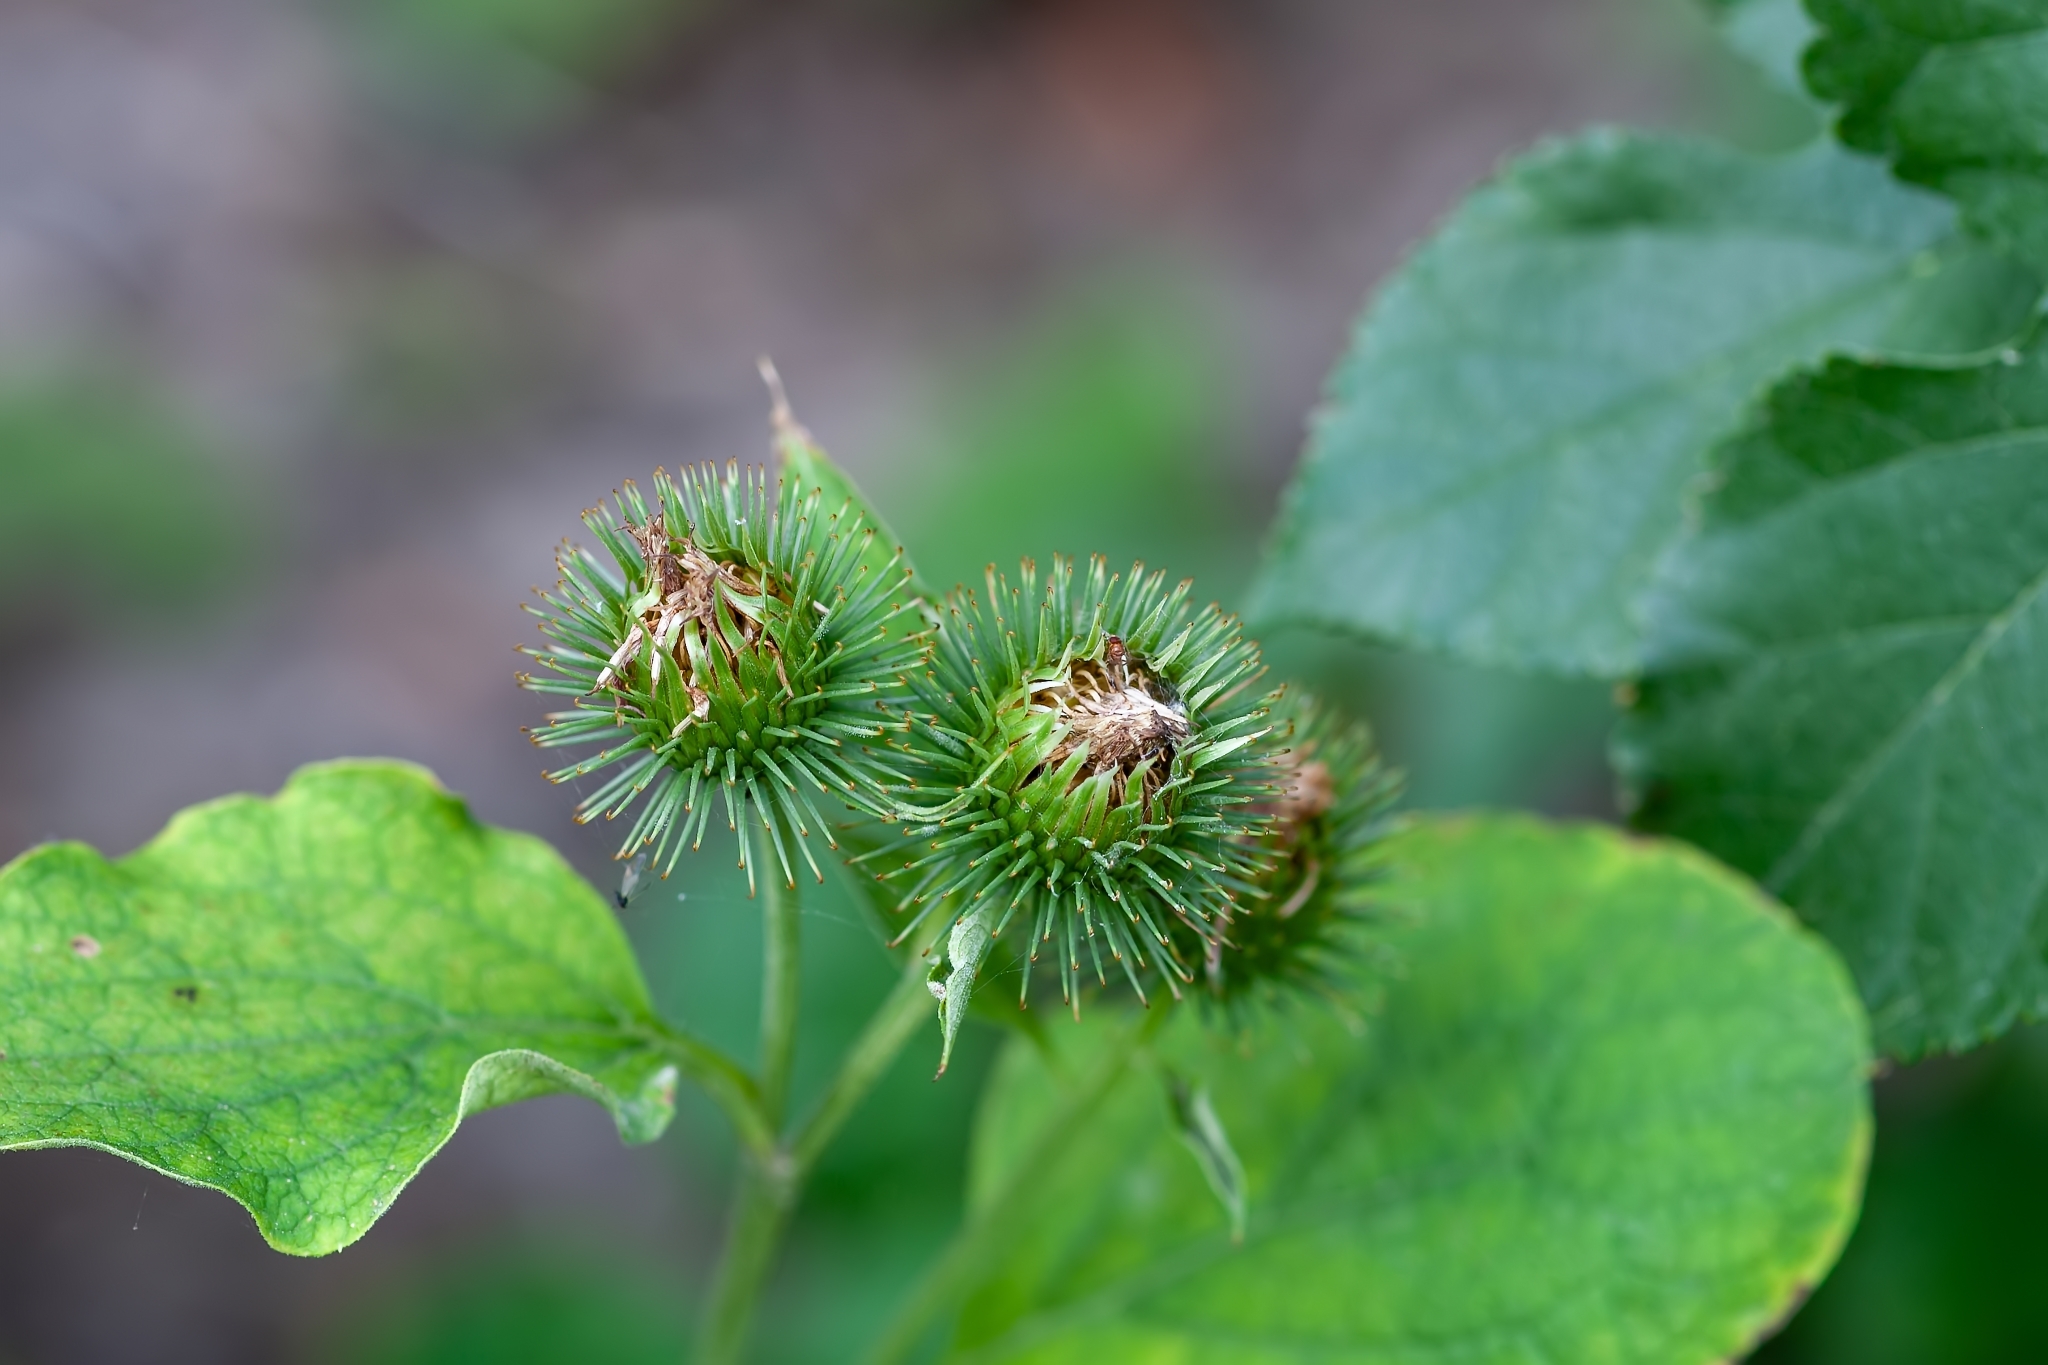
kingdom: Plantae
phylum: Tracheophyta
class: Magnoliopsida
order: Asterales
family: Asteraceae
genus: Arctium
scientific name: Arctium lappa
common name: Greater burdock
